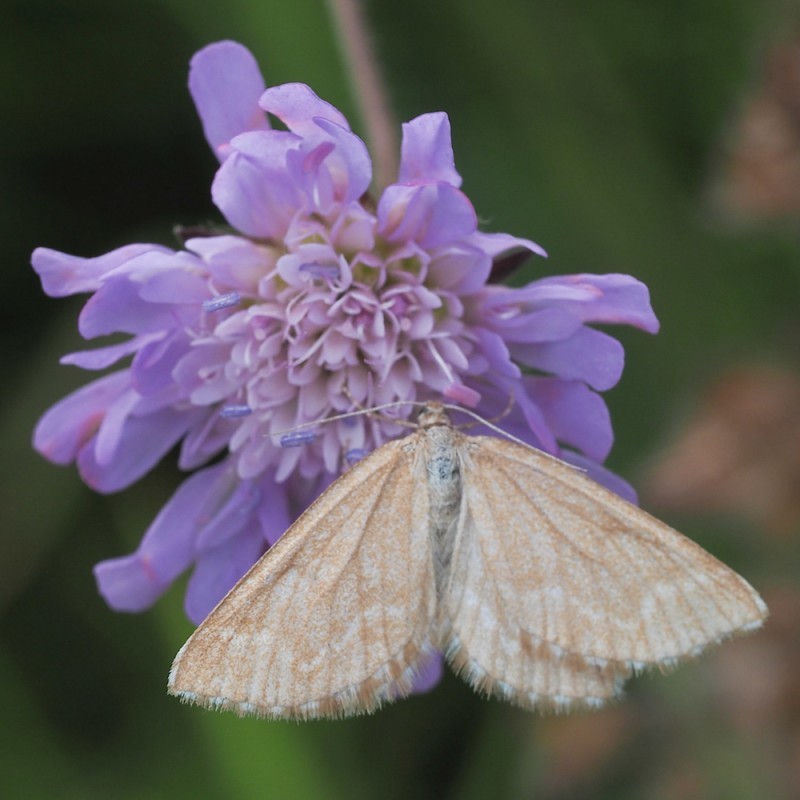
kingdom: Animalia
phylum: Arthropoda
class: Insecta
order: Lepidoptera
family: Geometridae
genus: Schistostege
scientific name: Schistostege decussata
